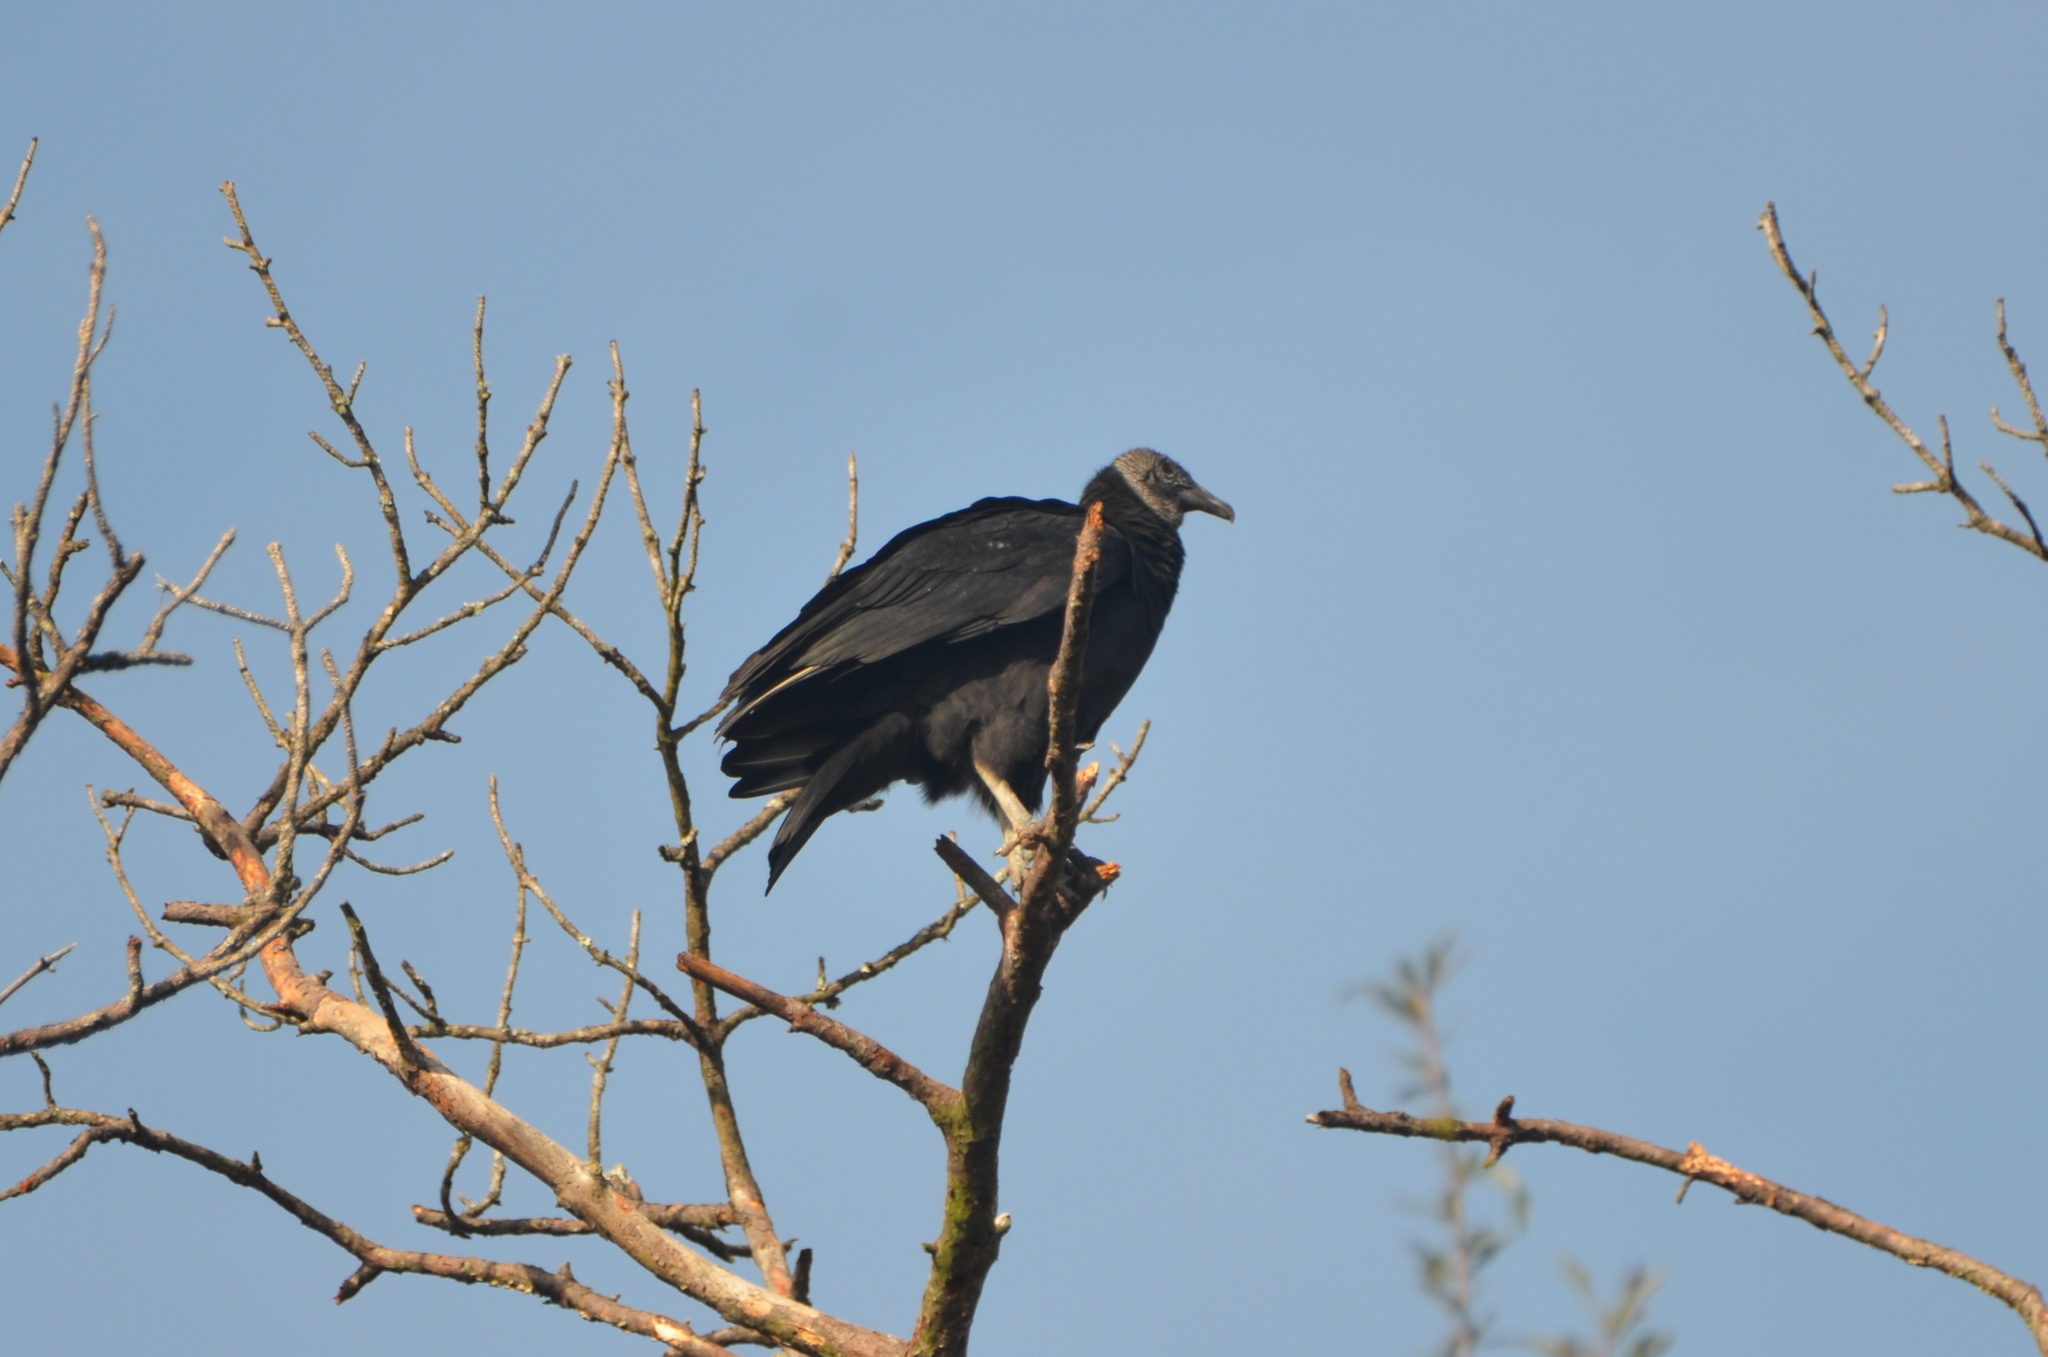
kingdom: Animalia
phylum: Chordata
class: Aves
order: Accipitriformes
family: Cathartidae
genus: Coragyps
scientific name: Coragyps atratus
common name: Black vulture
